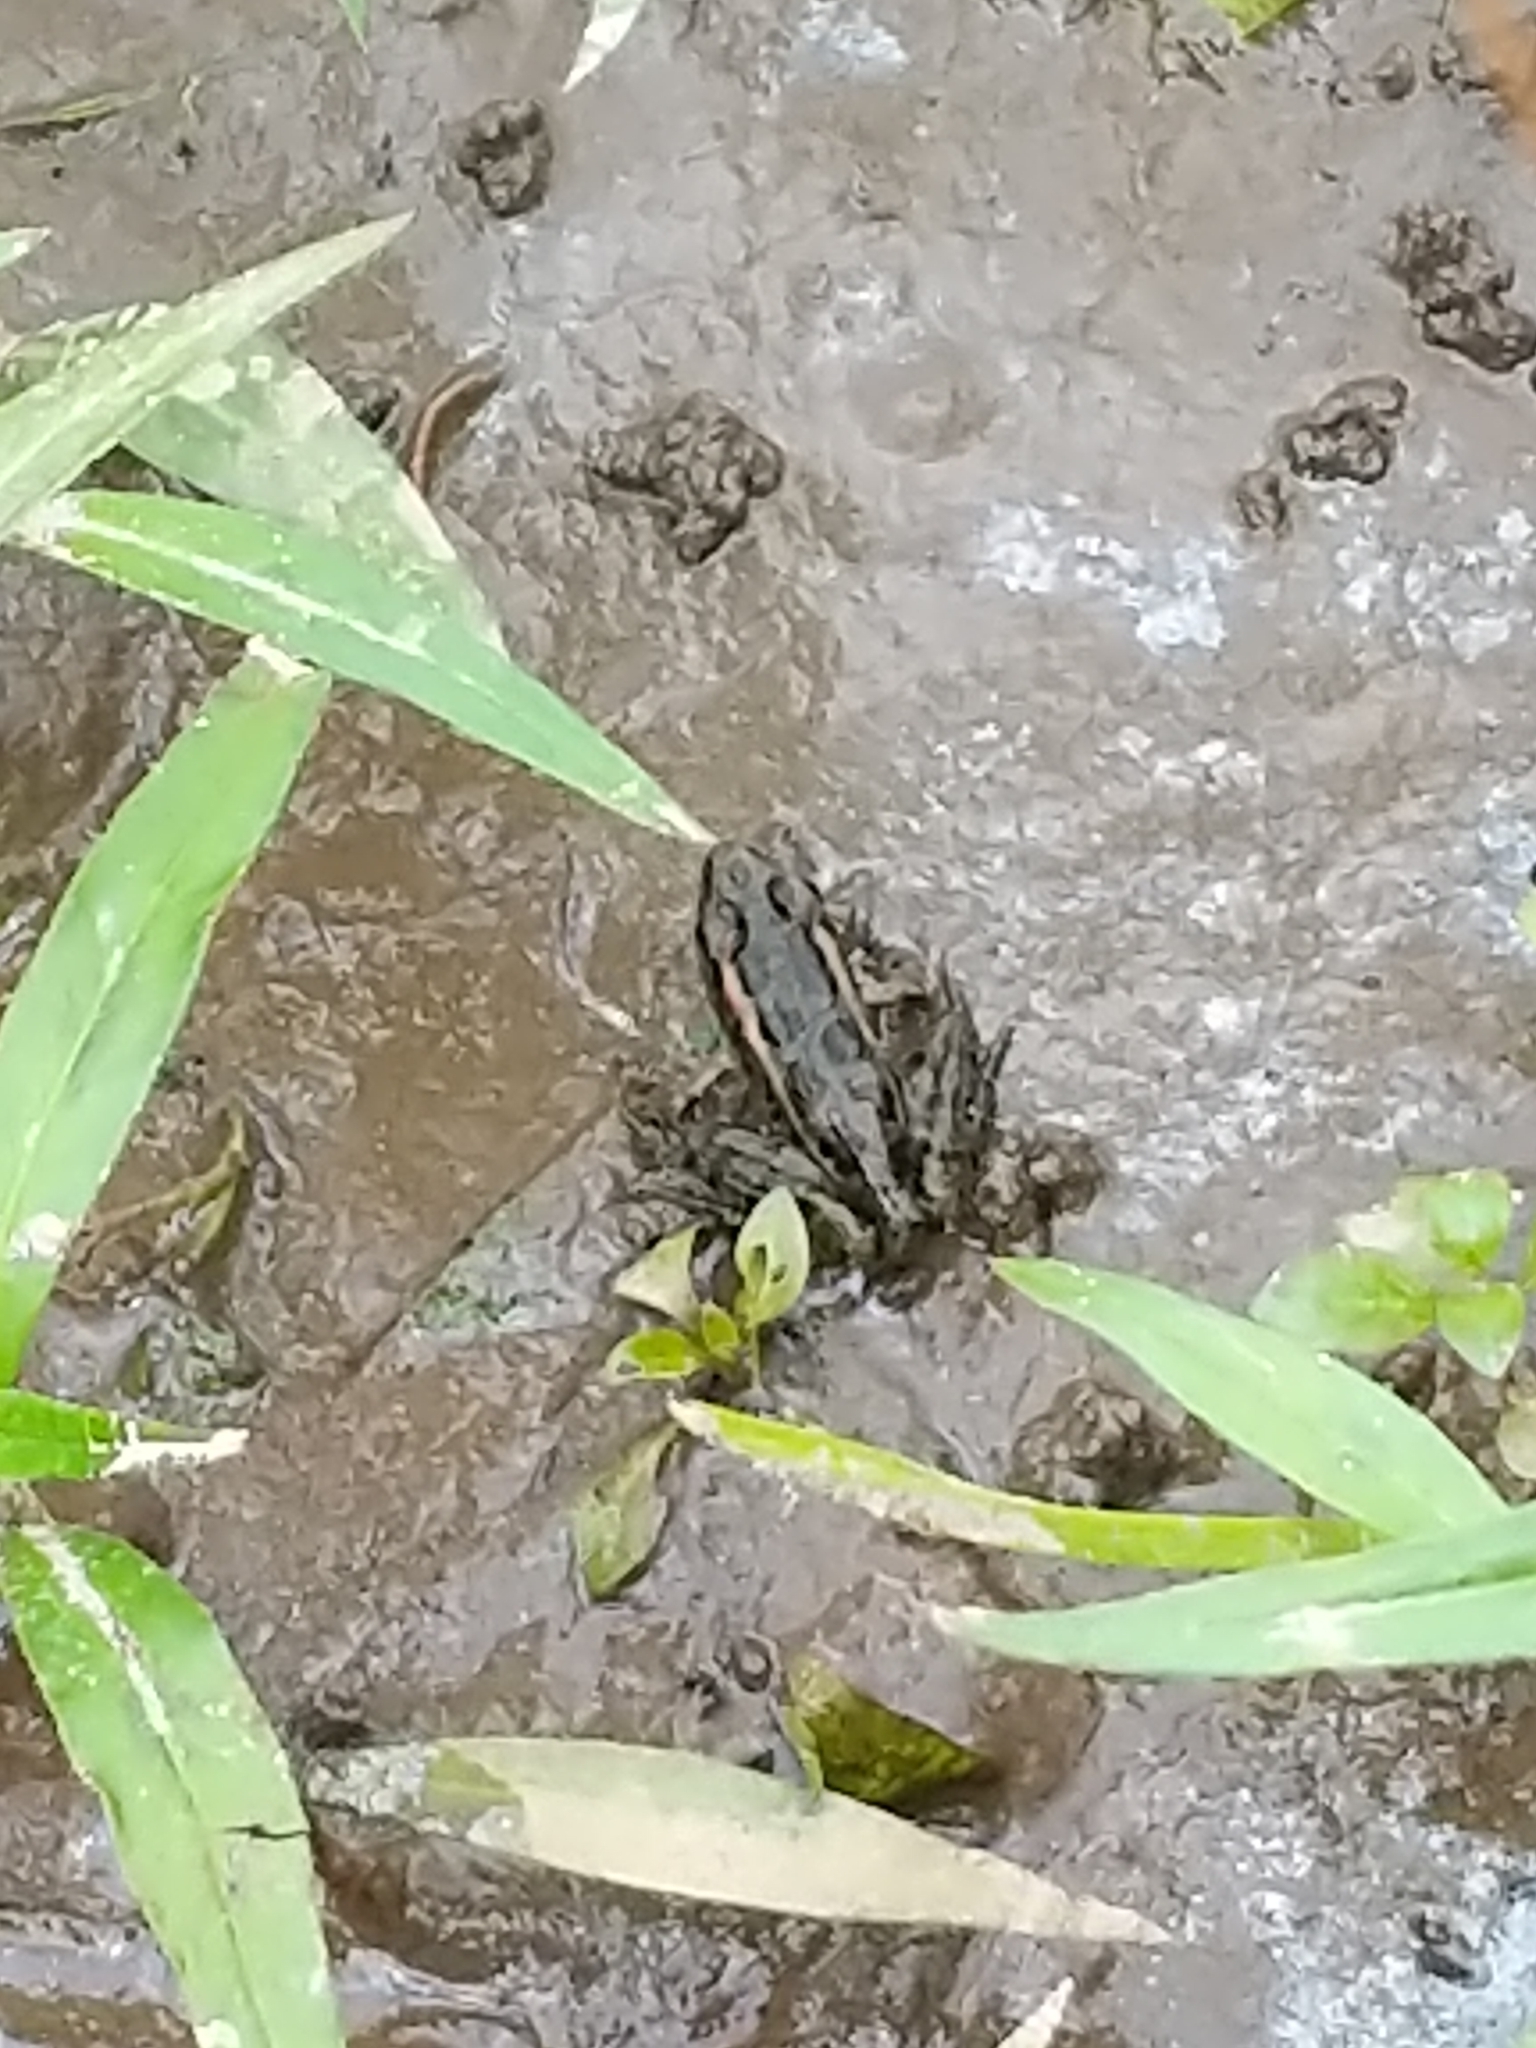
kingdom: Animalia
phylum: Chordata
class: Amphibia
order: Anura
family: Ranidae
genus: Lithobates
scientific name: Lithobates palustris
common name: Pickerel frog
